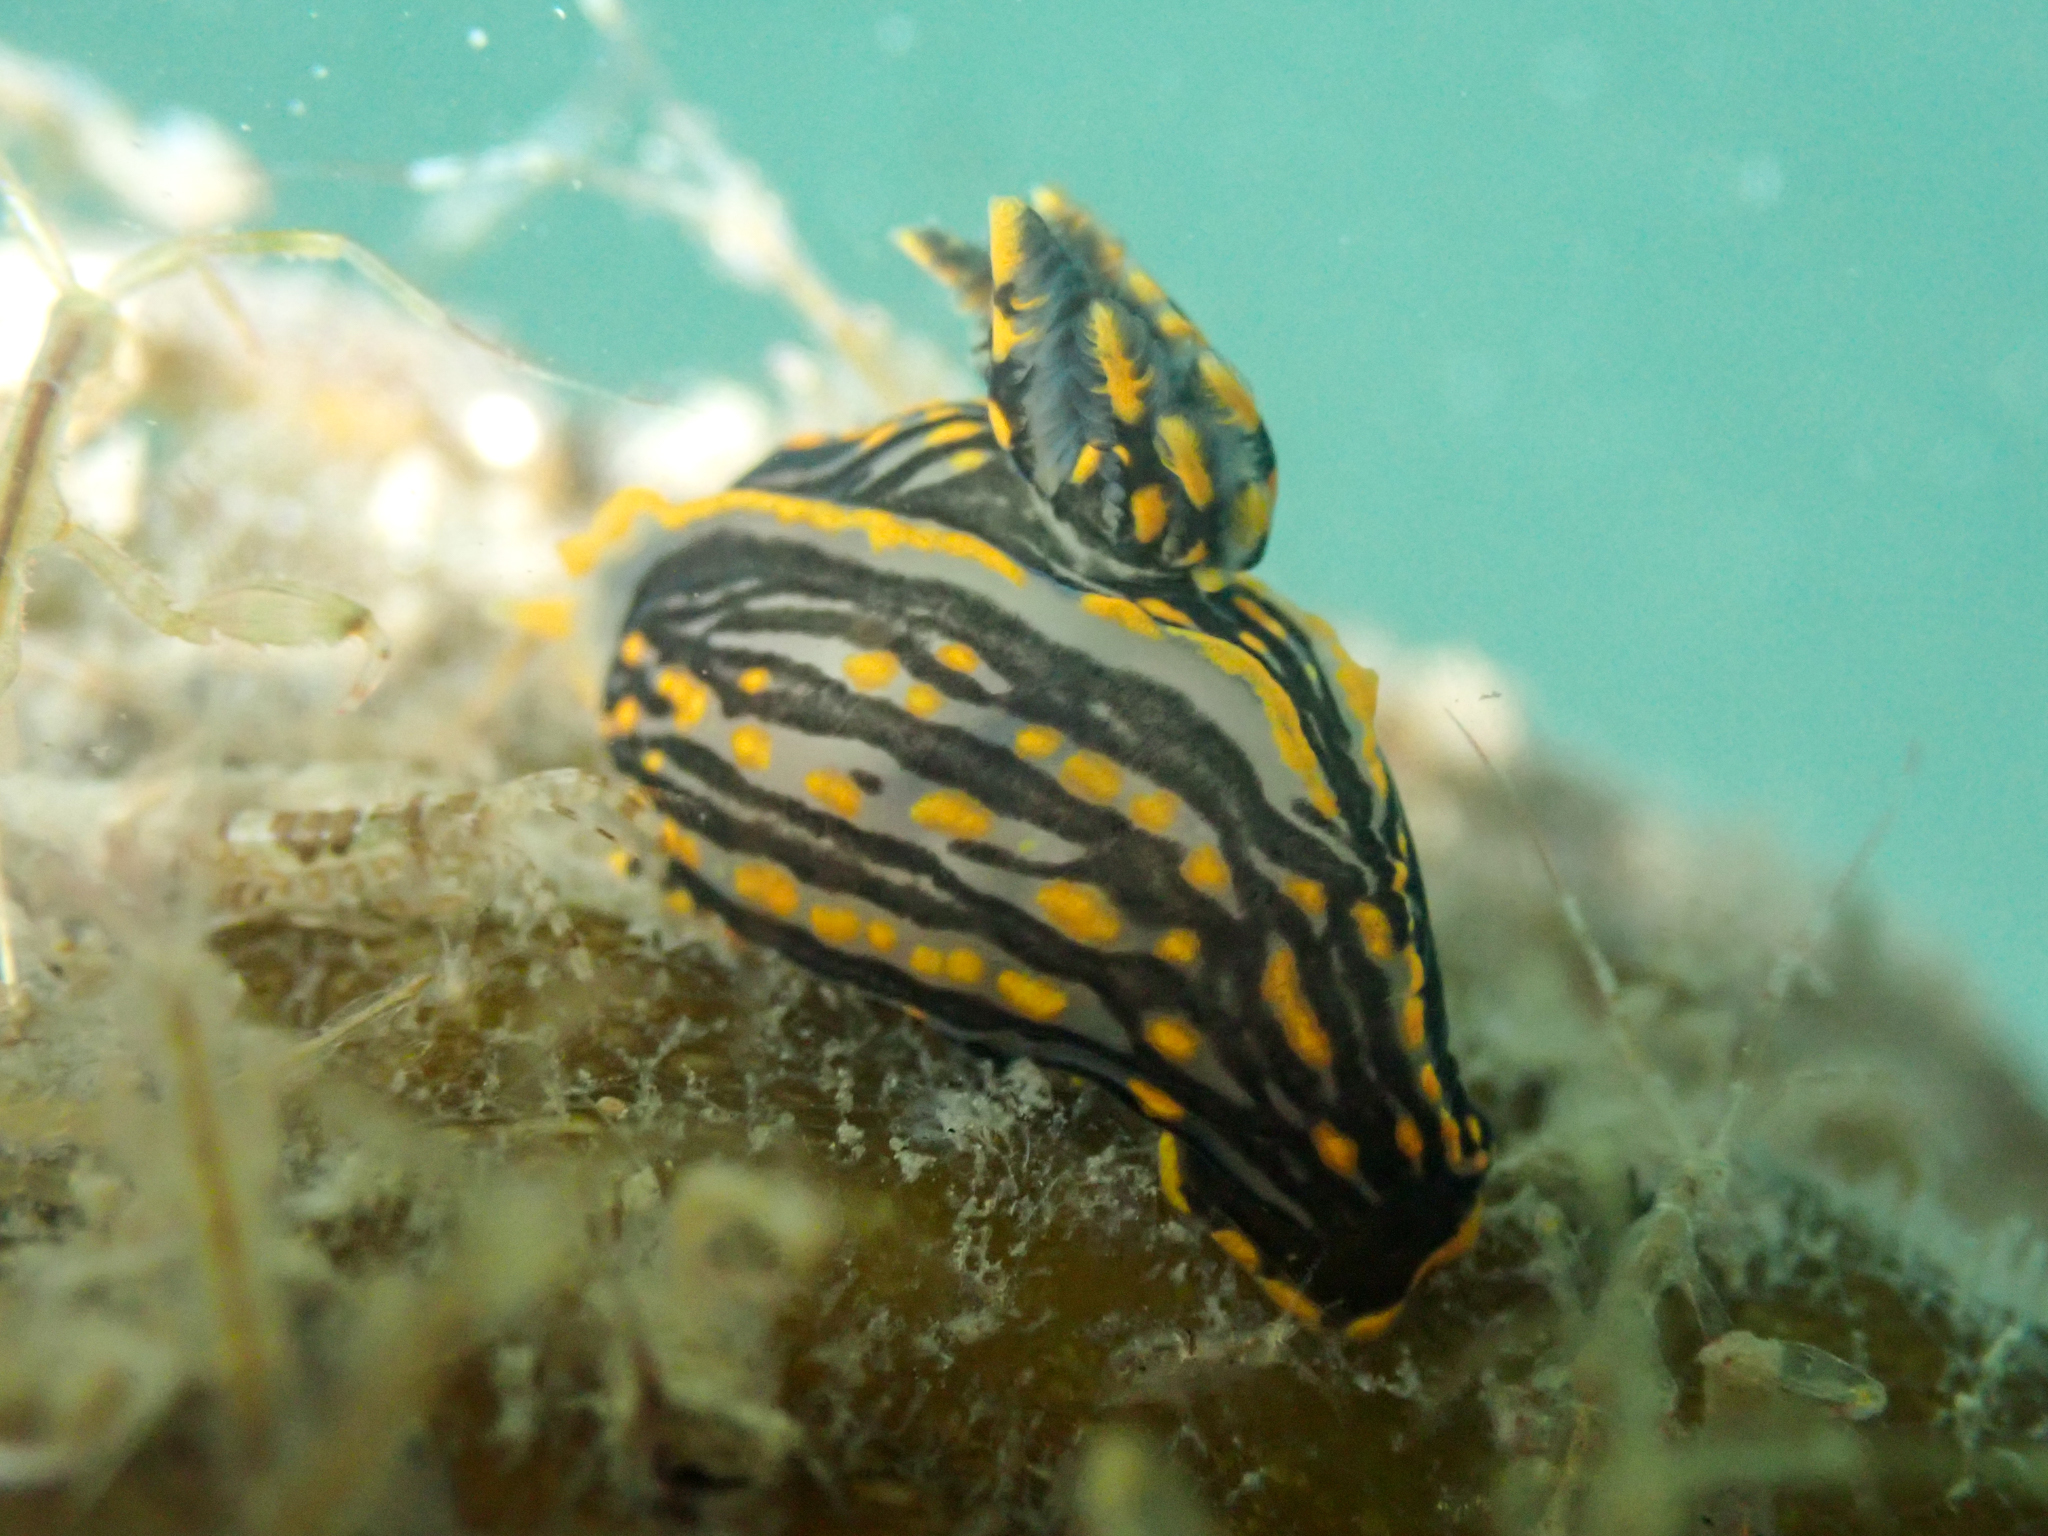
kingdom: Animalia
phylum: Mollusca
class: Gastropoda
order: Nudibranchia
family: Polyceridae
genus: Polycera
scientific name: Polycera atra
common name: Orange-spike polycera
